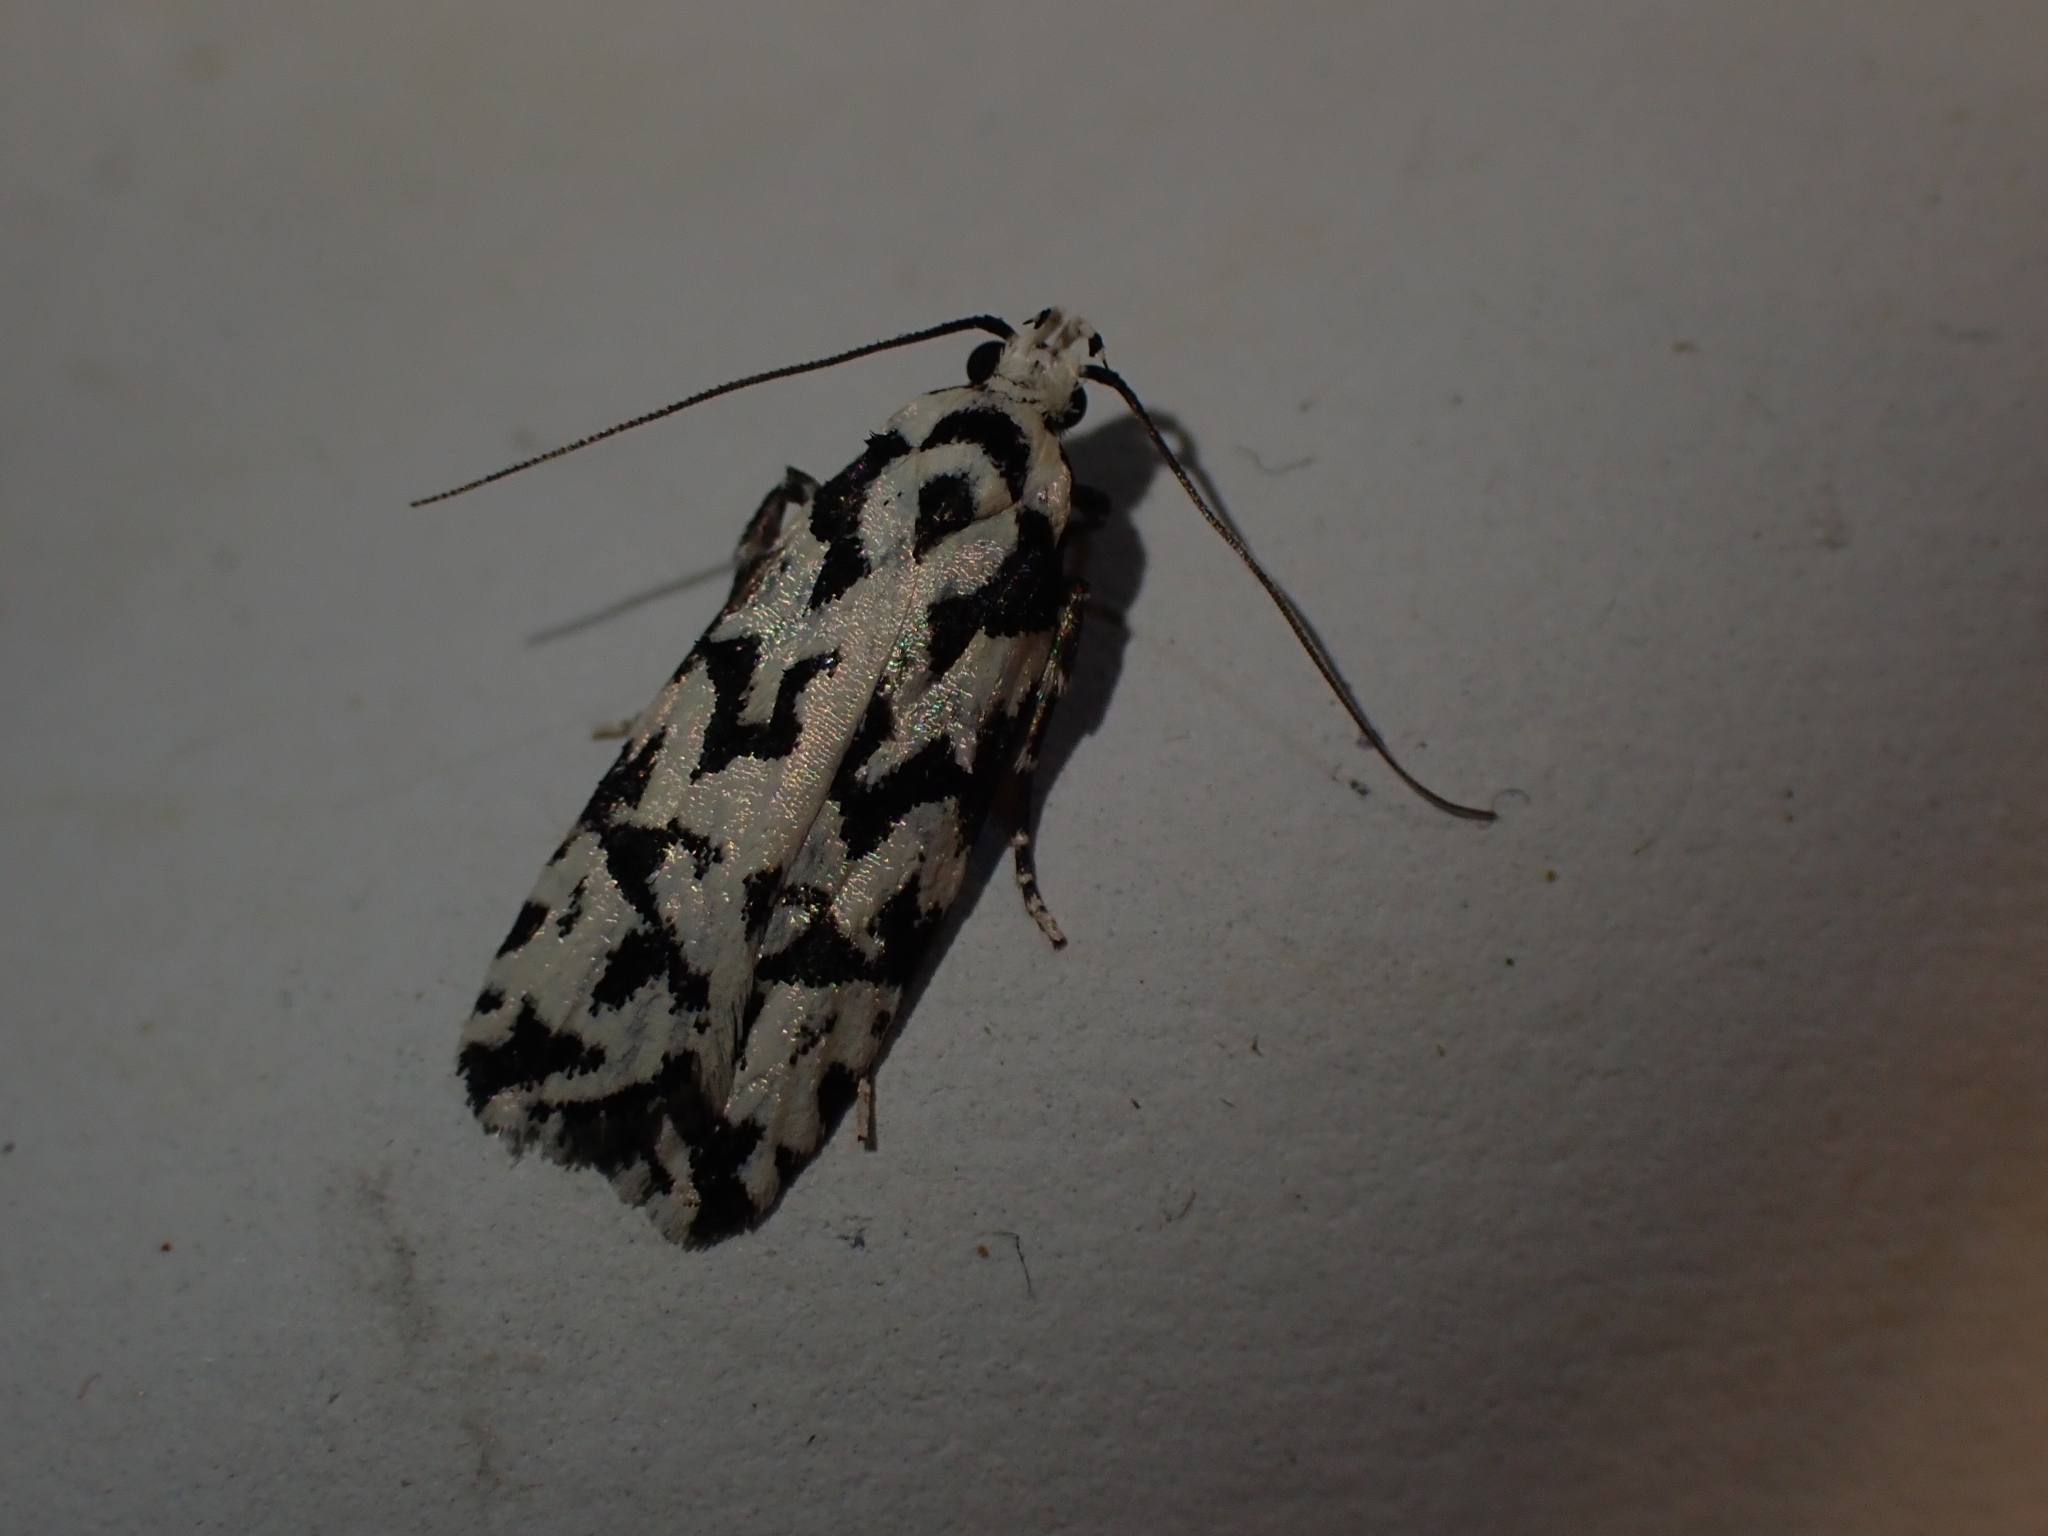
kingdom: Animalia
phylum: Arthropoda
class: Insecta
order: Lepidoptera
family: Oecophoridae
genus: Izatha
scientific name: Izatha
